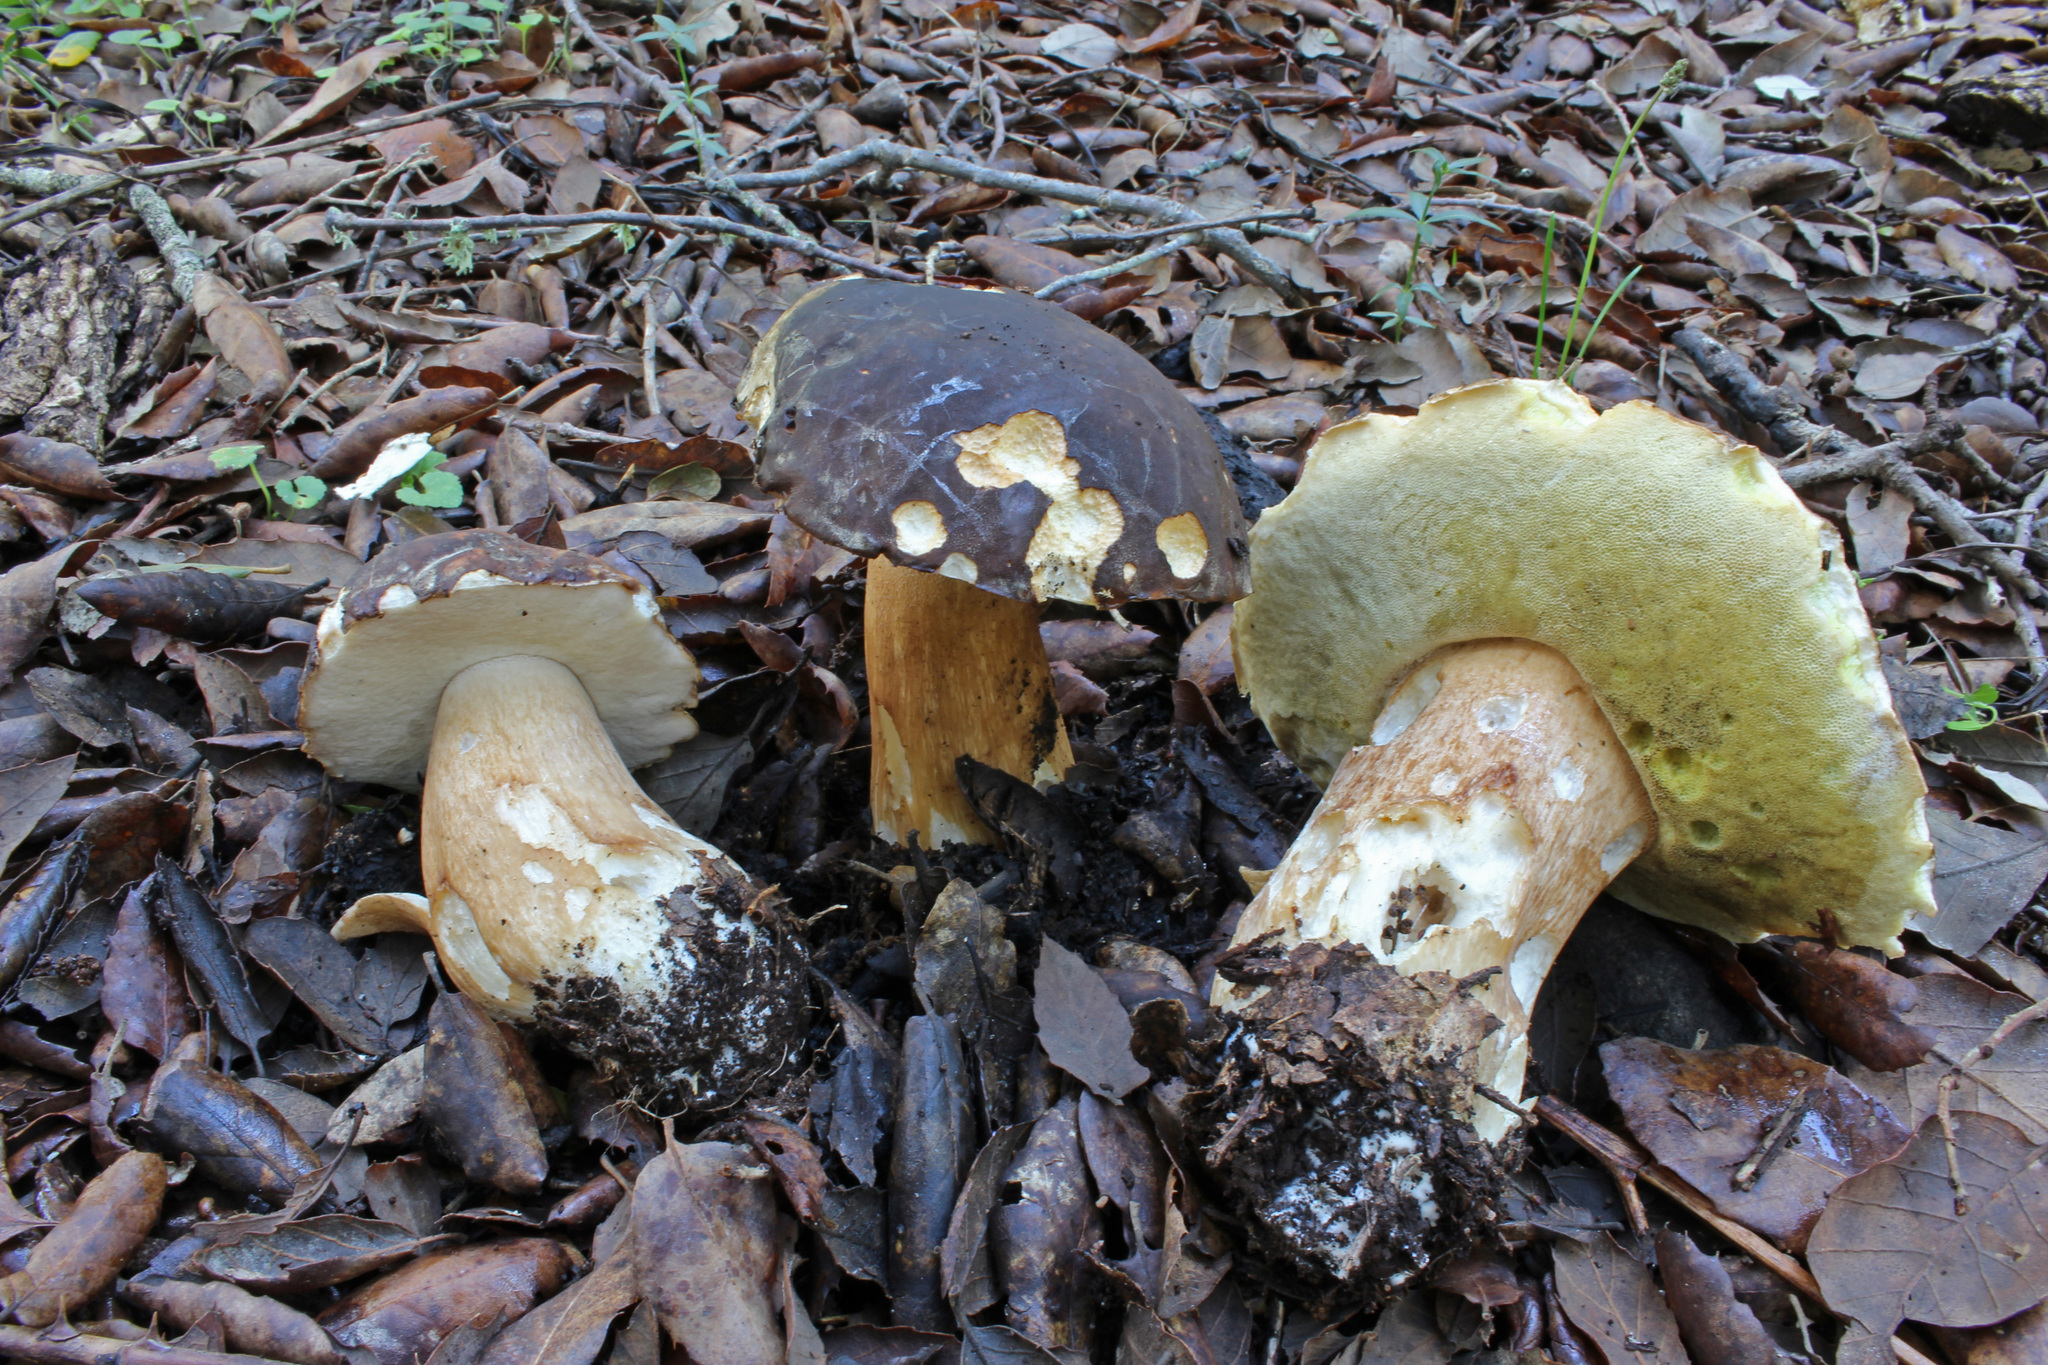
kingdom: Fungi
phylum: Basidiomycota
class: Agaricomycetes
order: Boletales
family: Boletaceae
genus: Boletus
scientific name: Boletus aereus
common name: Bronze bolete
